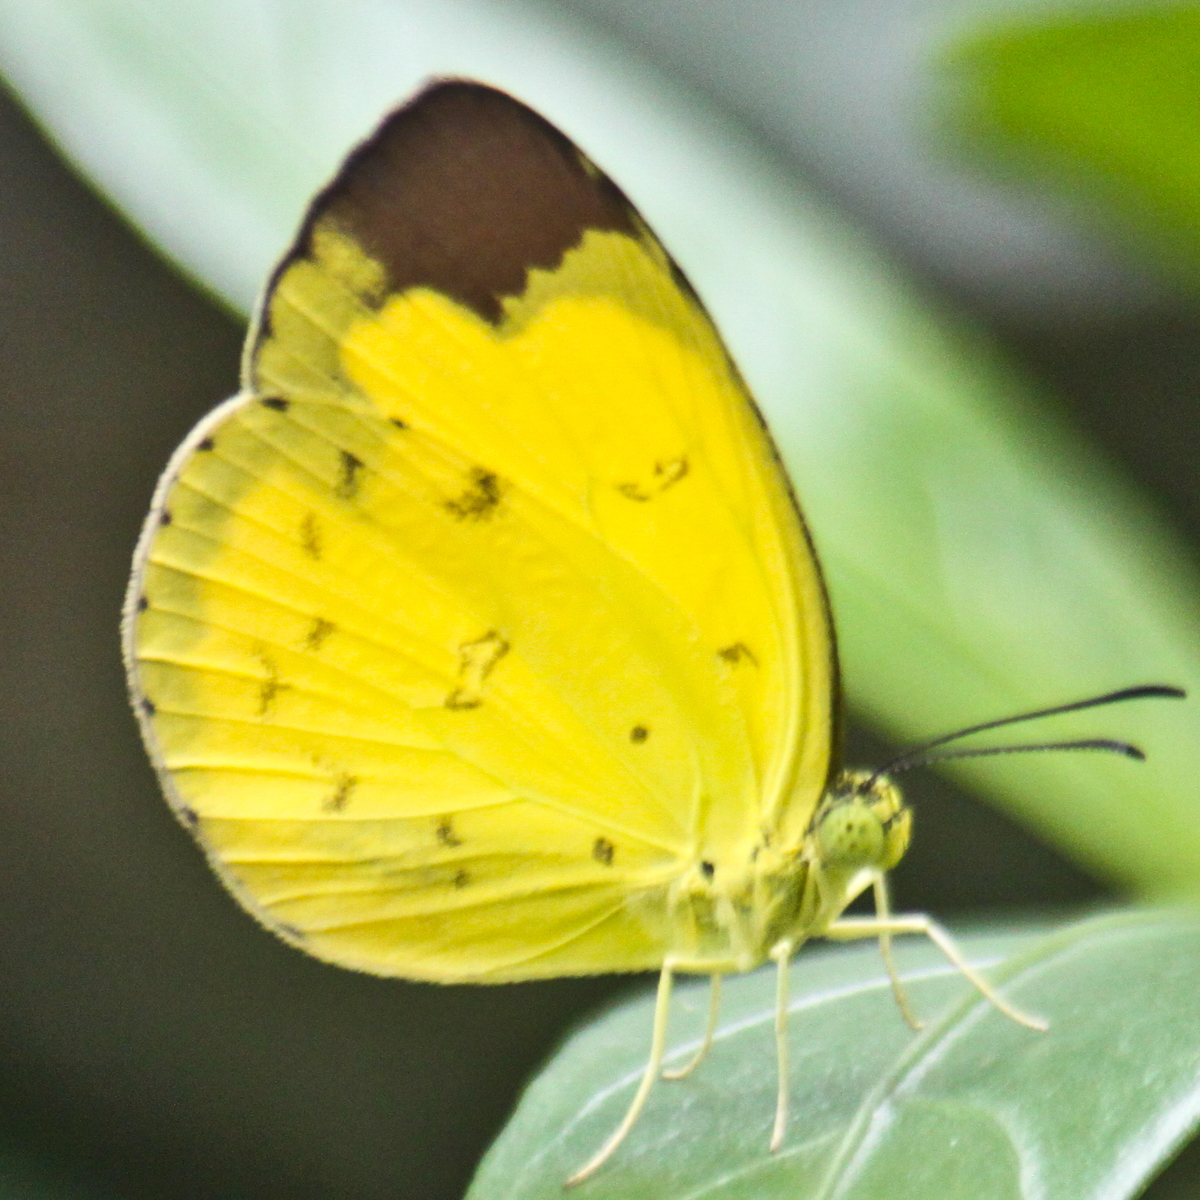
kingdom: Animalia
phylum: Arthropoda
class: Insecta
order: Lepidoptera
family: Pieridae
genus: Eurema
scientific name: Eurema sari
